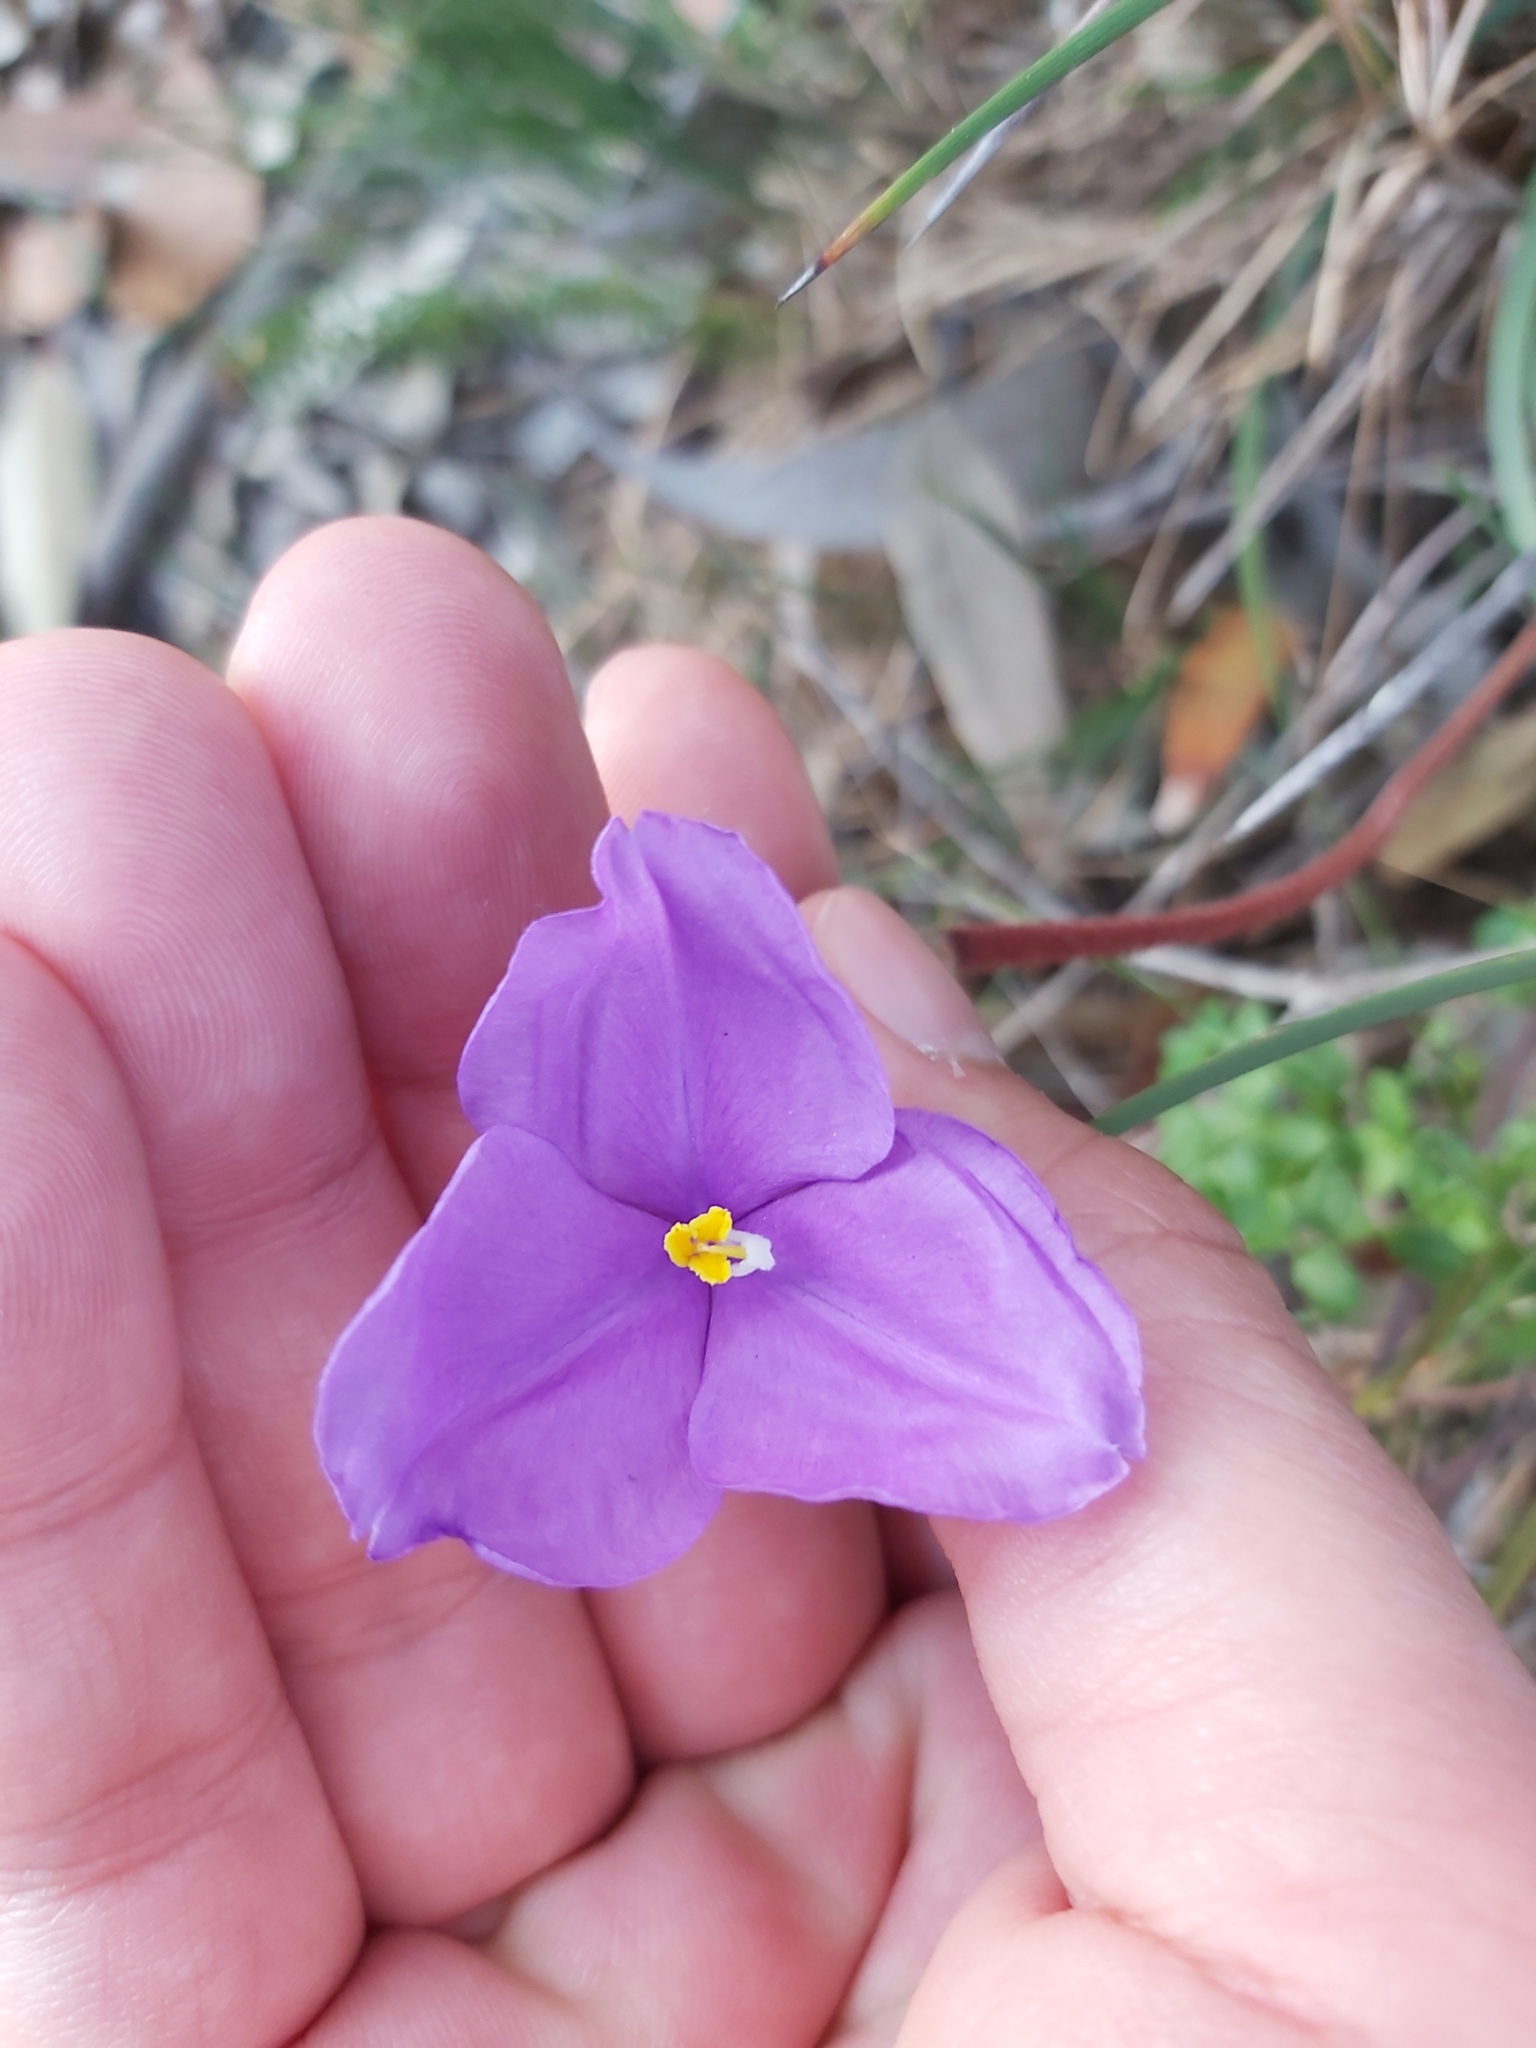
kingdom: Plantae
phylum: Tracheophyta
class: Liliopsida
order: Asparagales
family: Iridaceae
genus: Patersonia
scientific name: Patersonia sericea
